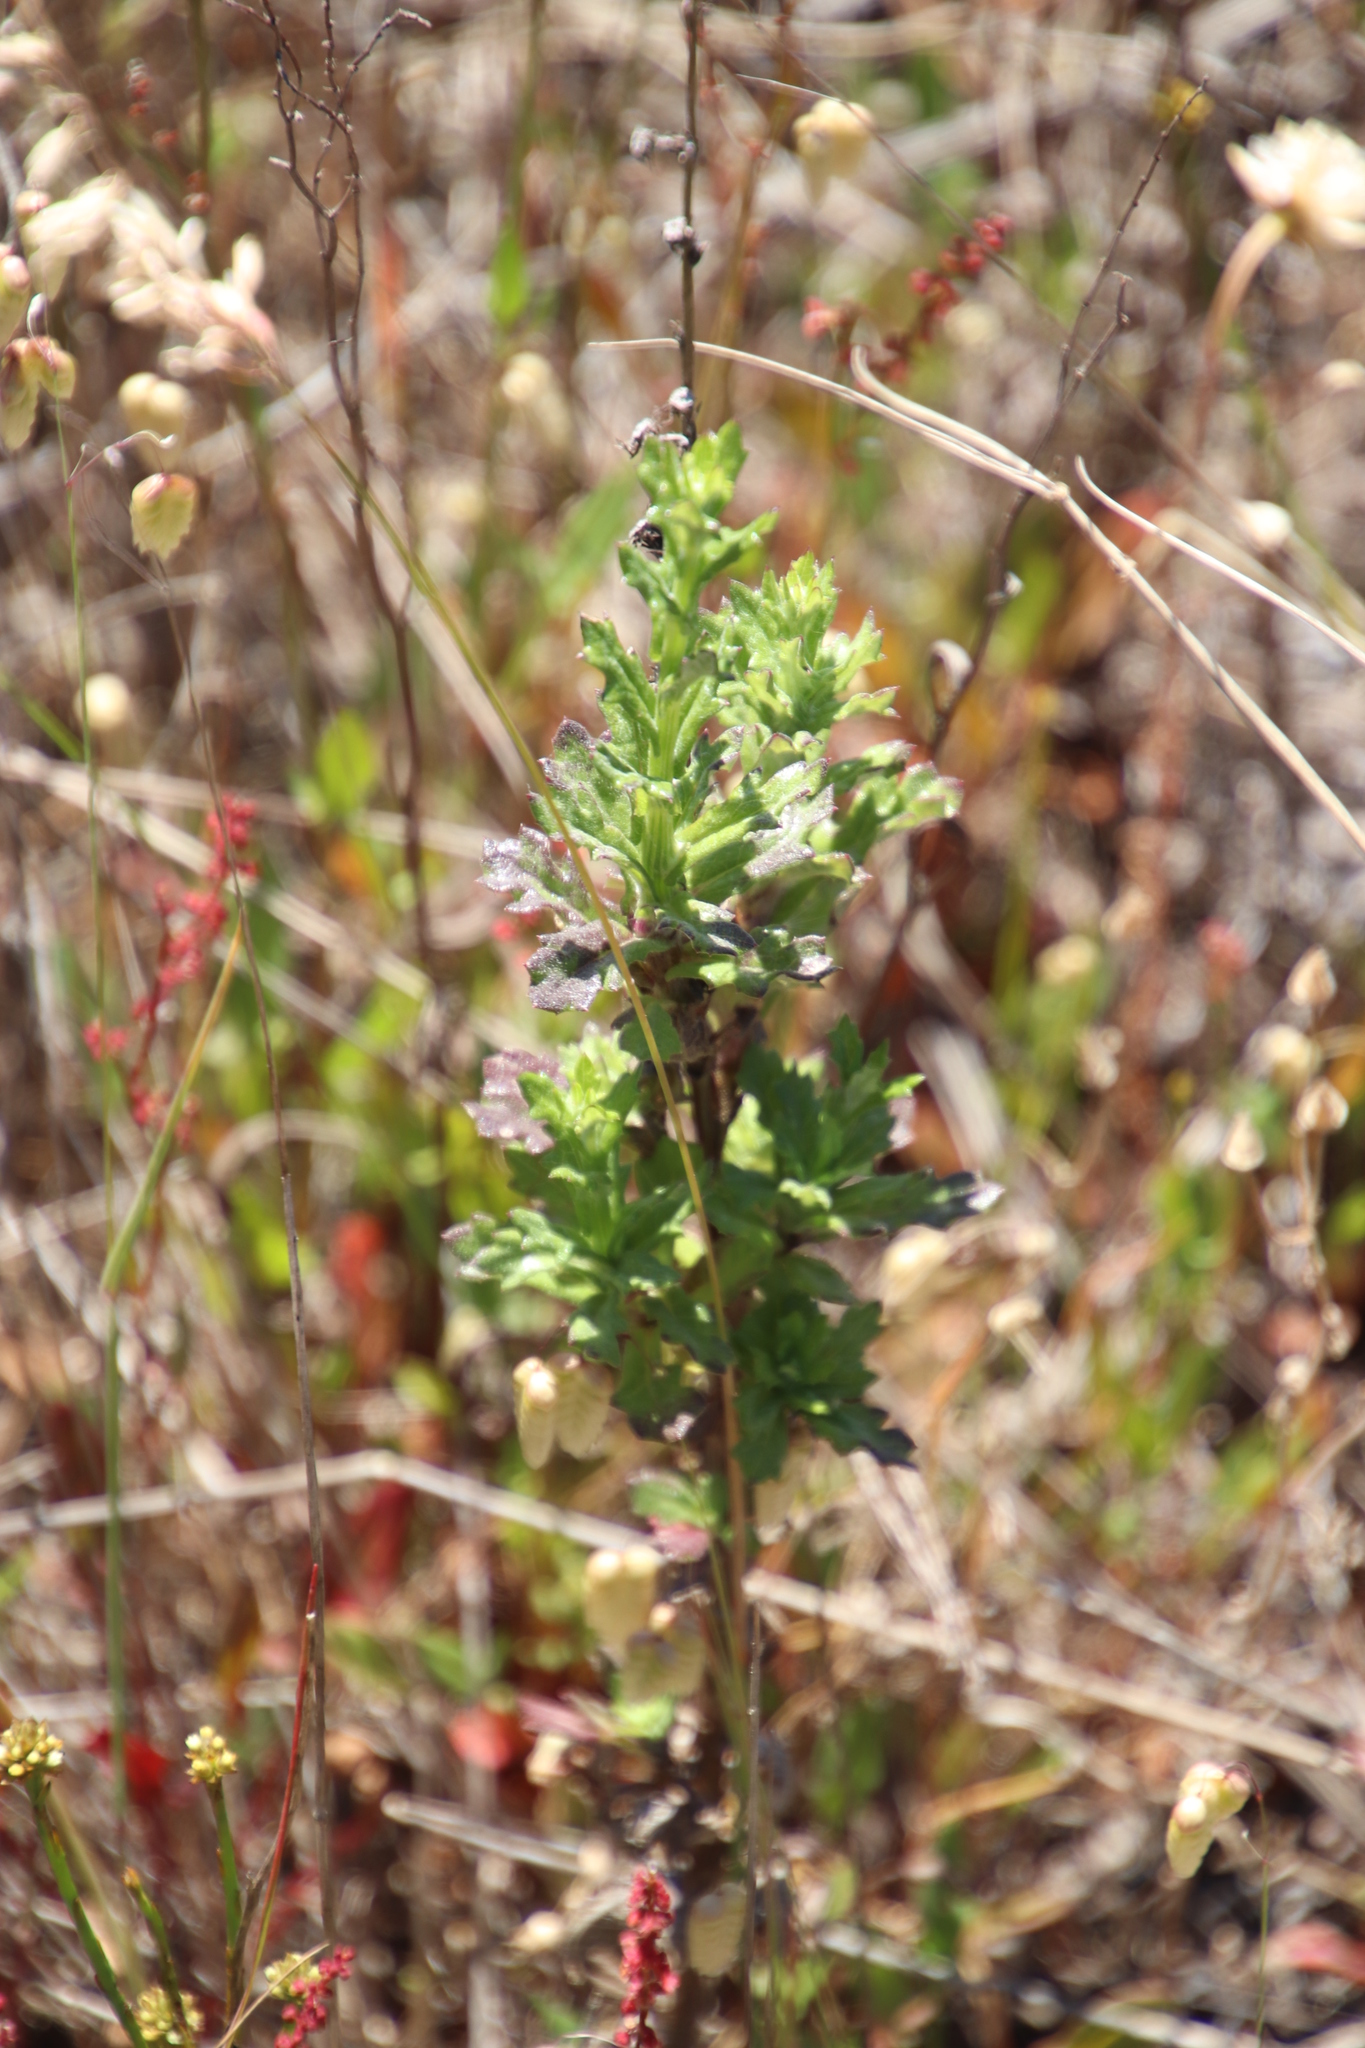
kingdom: Plantae
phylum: Tracheophyta
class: Magnoliopsida
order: Asterales
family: Asteraceae
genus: Senecio
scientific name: Senecio pubigerus
